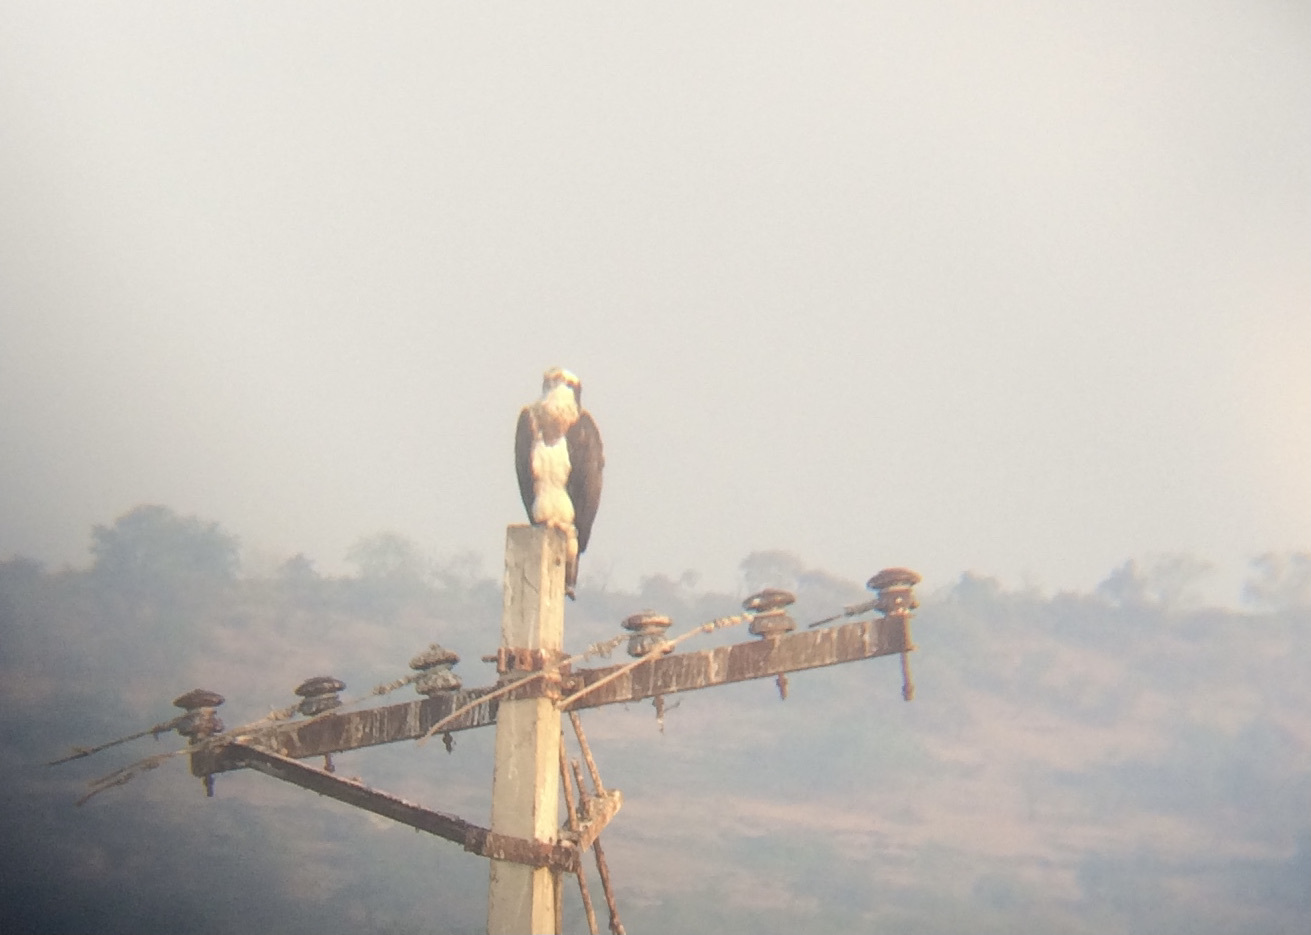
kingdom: Animalia
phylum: Chordata
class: Aves
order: Accipitriformes
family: Pandionidae
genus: Pandion
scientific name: Pandion haliaetus
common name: Osprey
